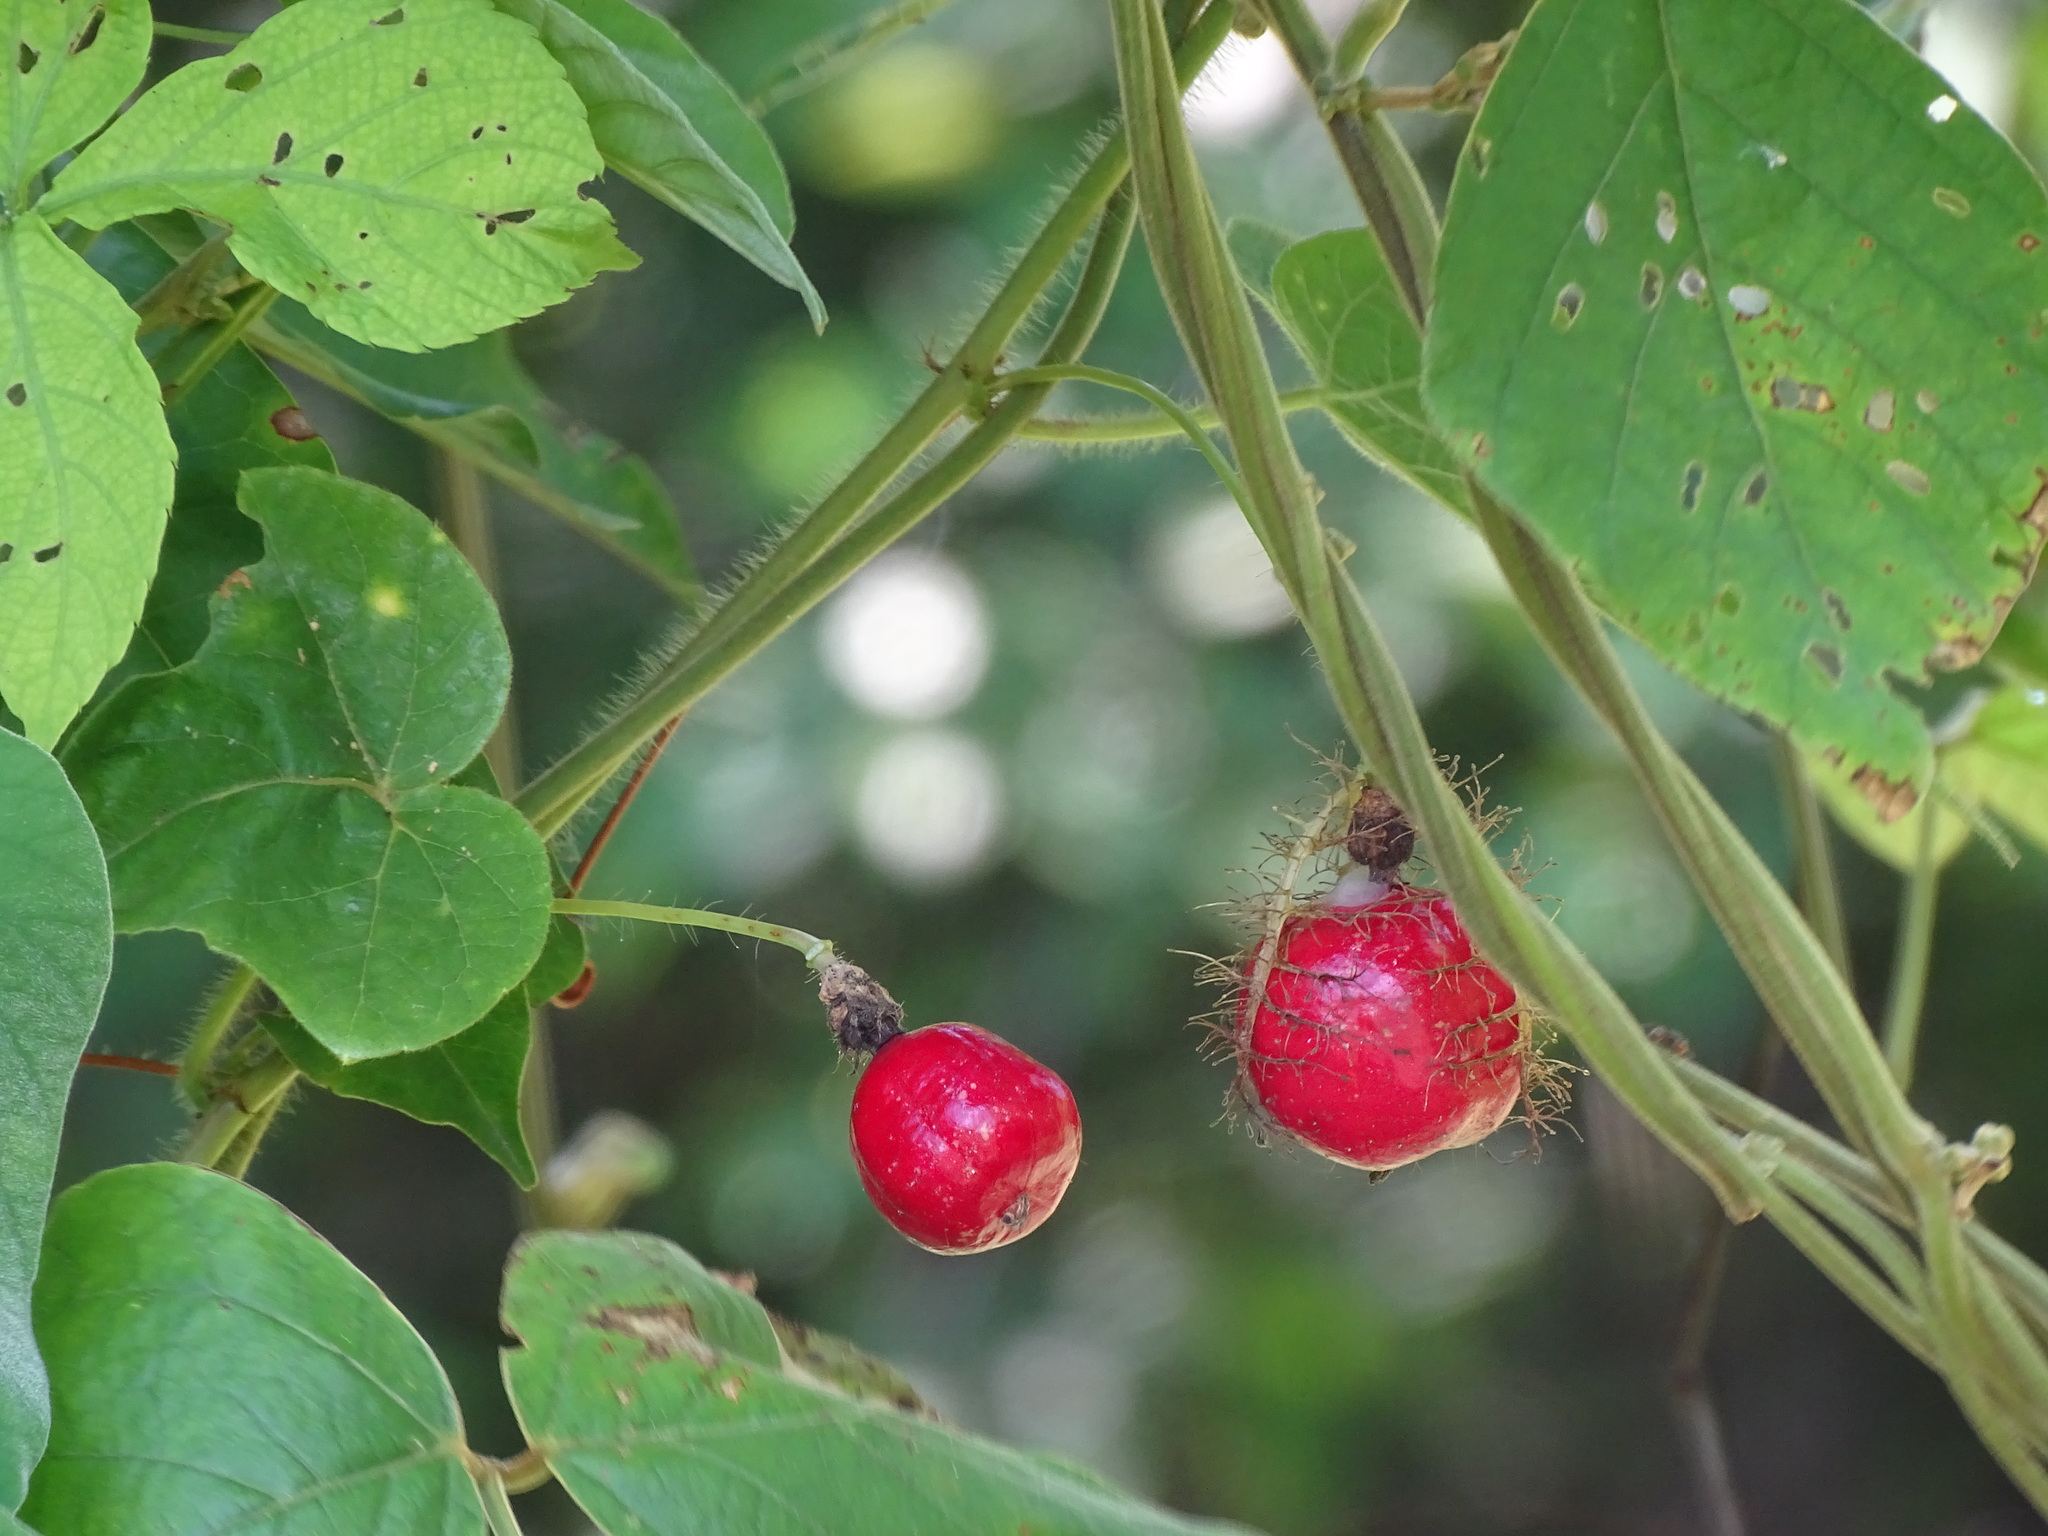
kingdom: Plantae
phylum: Tracheophyta
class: Magnoliopsida
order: Malpighiales
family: Passifloraceae
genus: Passiflora
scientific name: Passiflora
